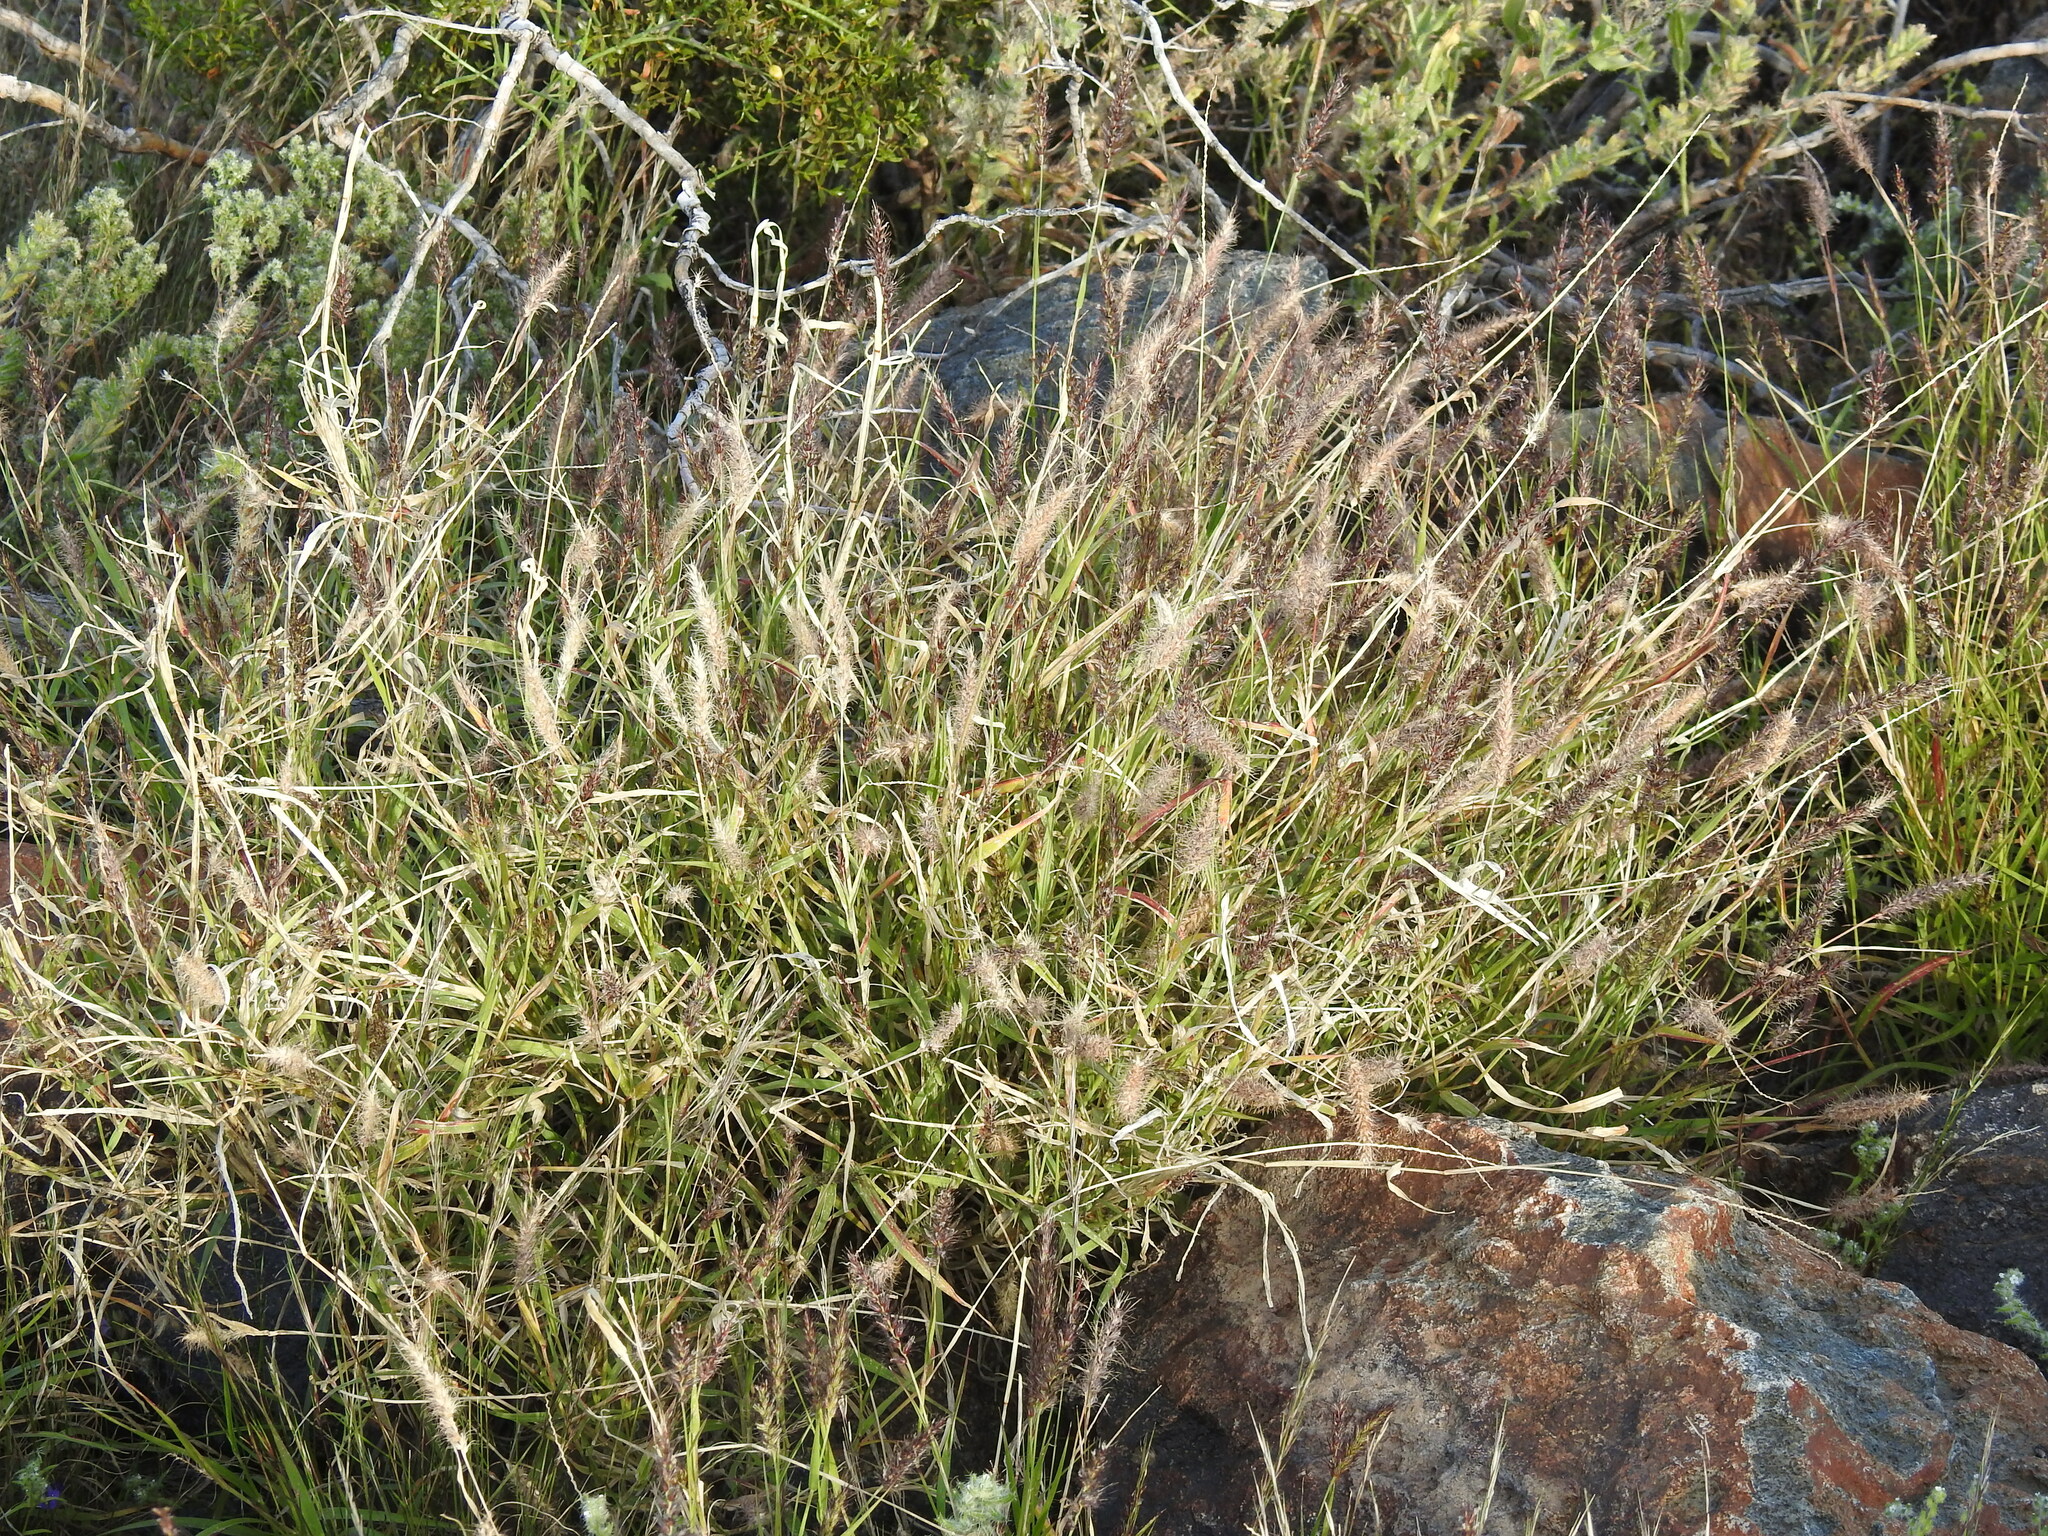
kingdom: Plantae
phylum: Tracheophyta
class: Liliopsida
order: Poales
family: Poaceae
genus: Cenchrus
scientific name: Cenchrus ciliaris
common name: Buffelgrass
